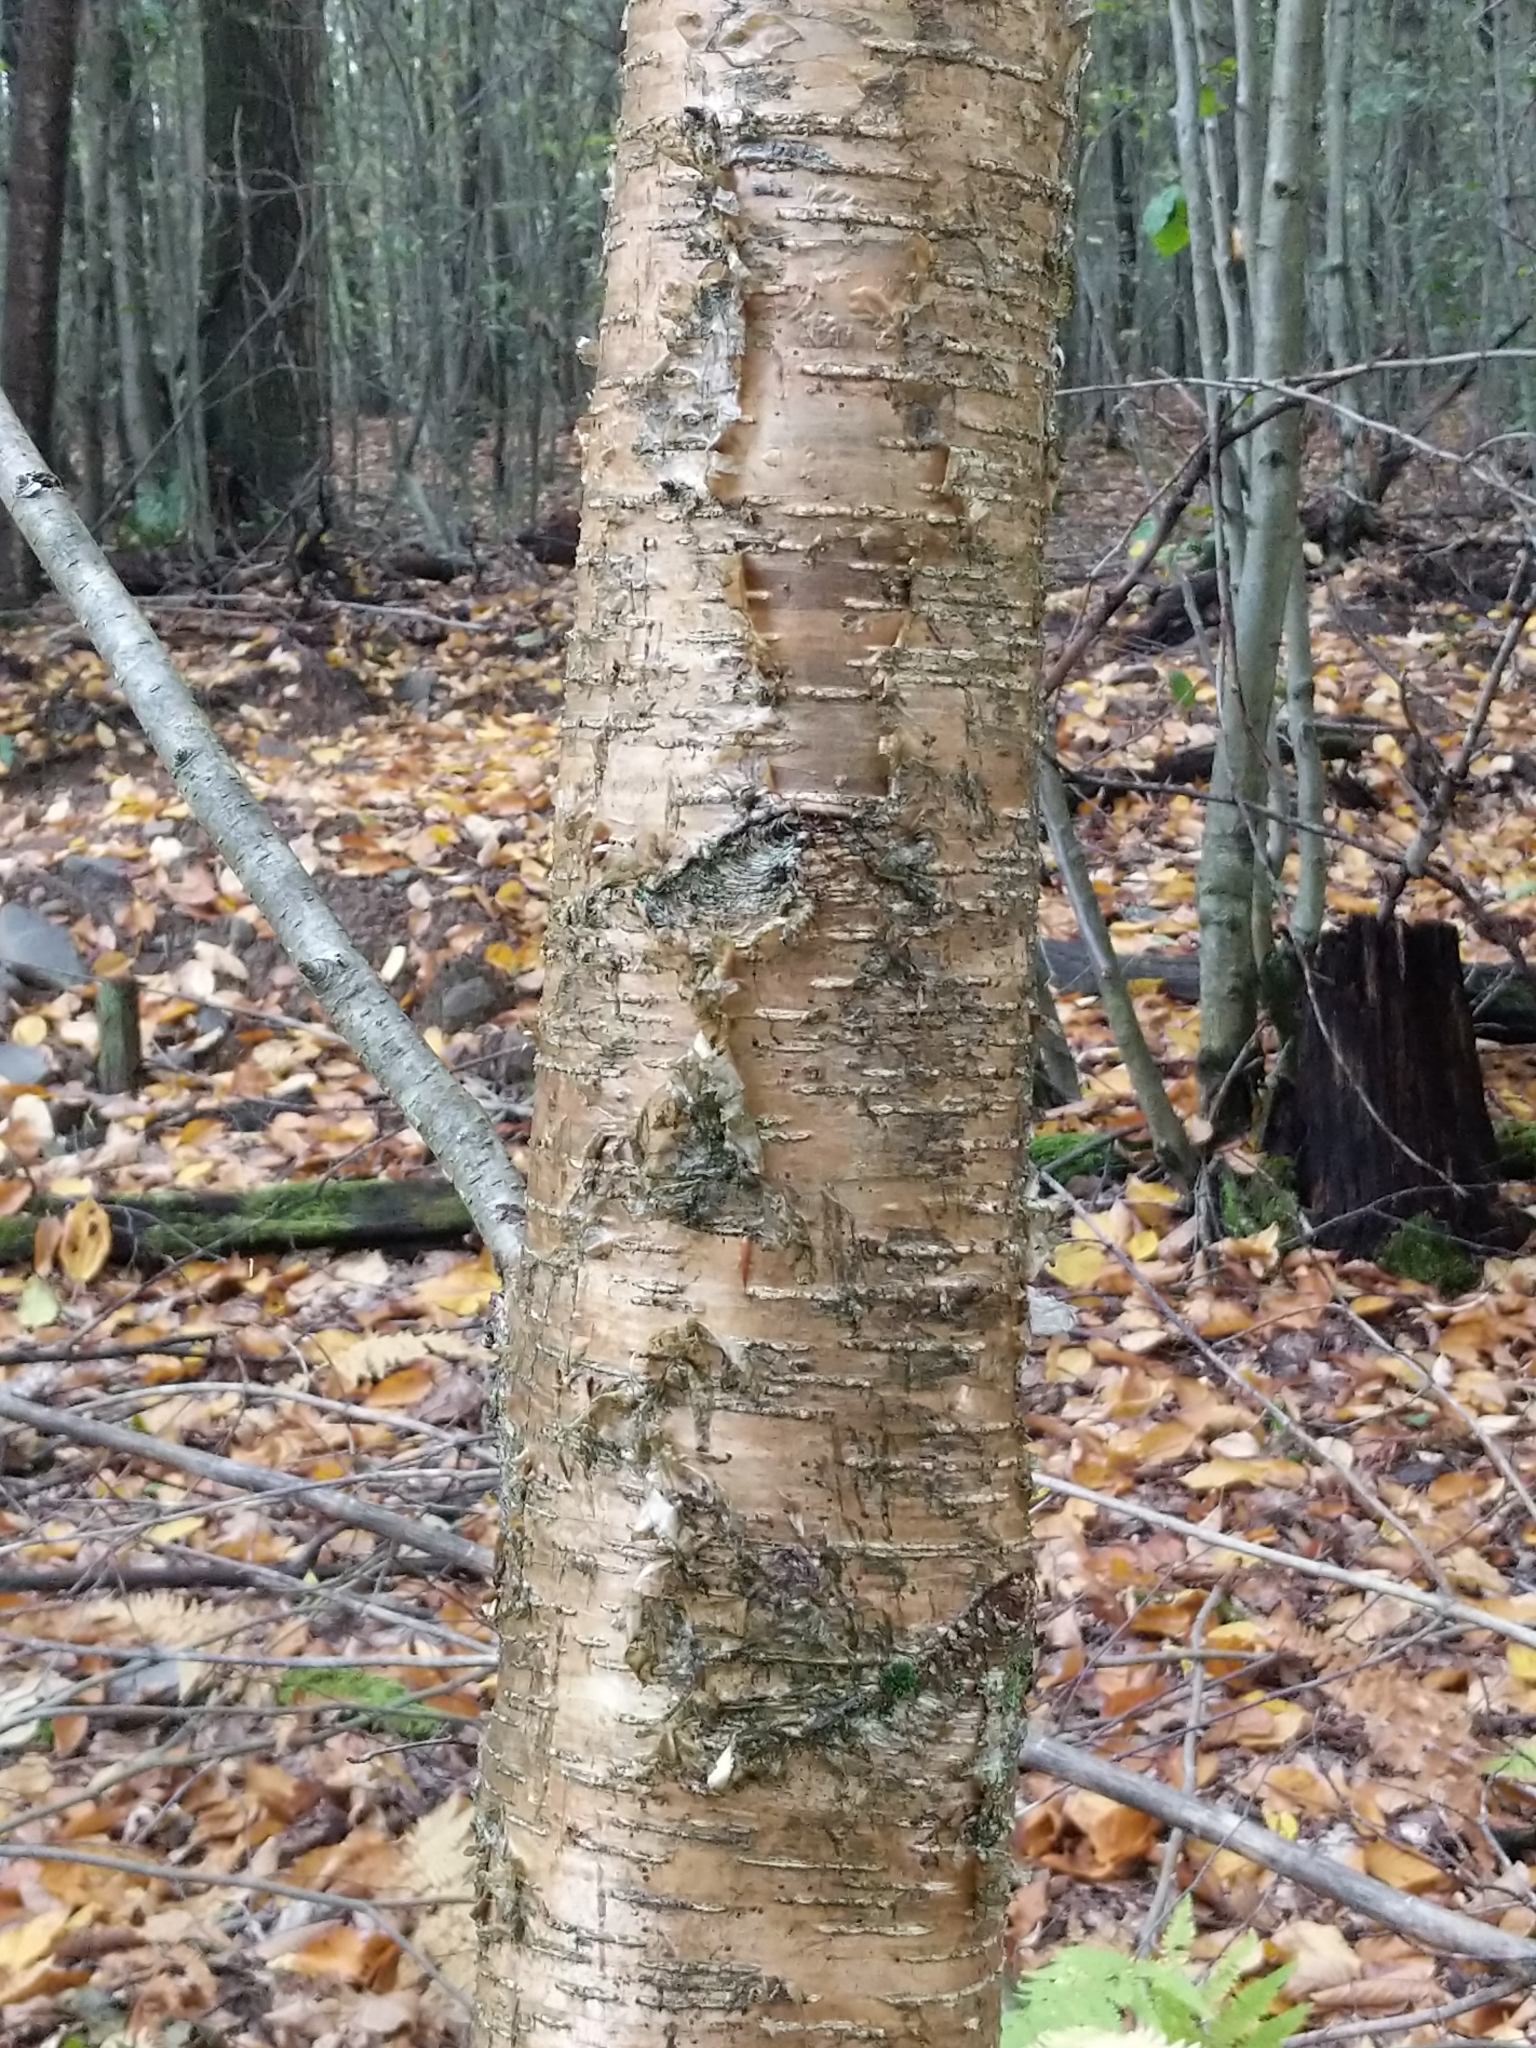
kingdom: Plantae
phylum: Tracheophyta
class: Magnoliopsida
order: Fagales
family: Betulaceae
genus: Betula
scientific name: Betula alleghaniensis
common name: Yellow birch
